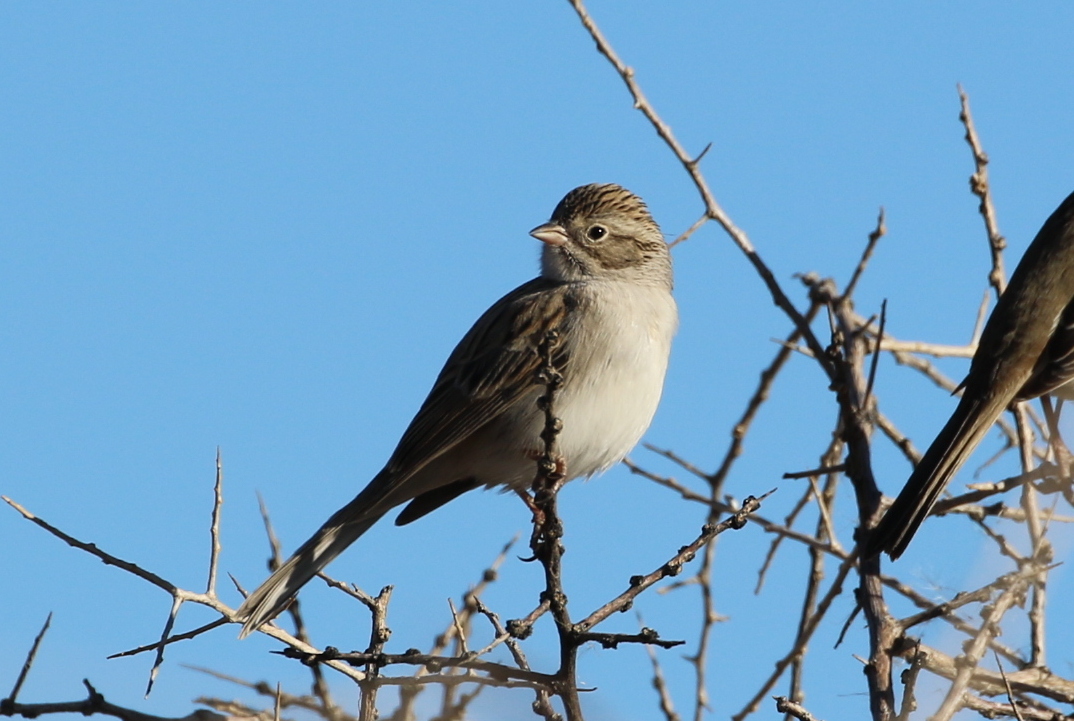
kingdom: Animalia
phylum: Chordata
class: Aves
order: Passeriformes
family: Passerellidae
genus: Spizella
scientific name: Spizella breweri
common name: Brewer's sparrow
